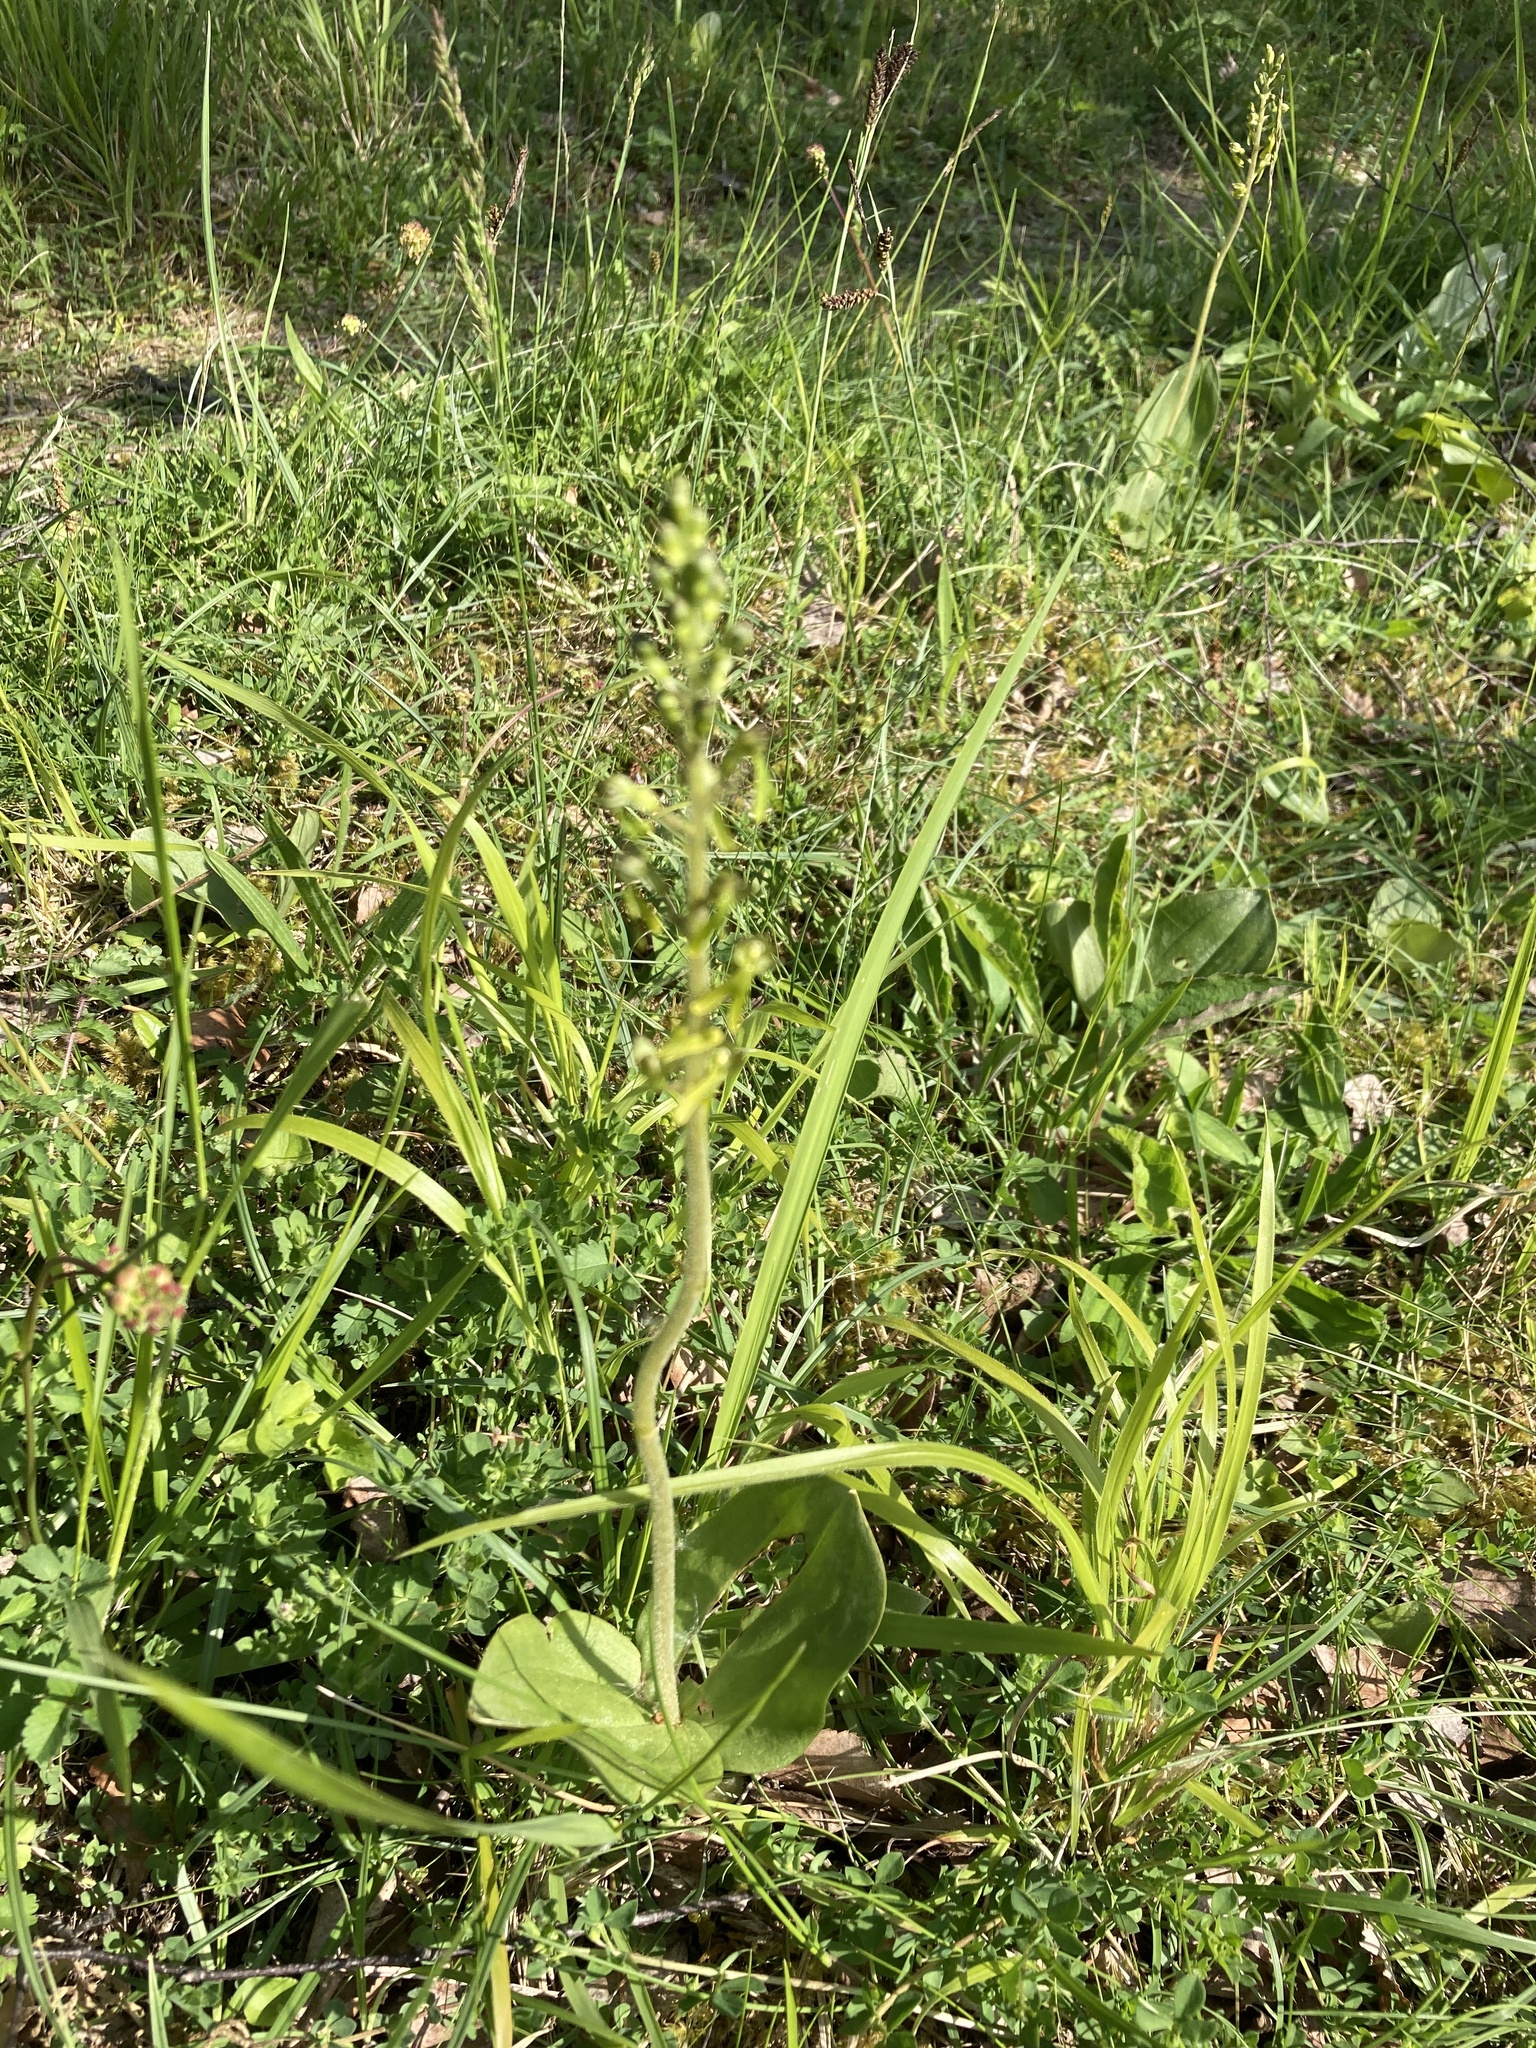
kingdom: Plantae
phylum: Tracheophyta
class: Liliopsida
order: Asparagales
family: Orchidaceae
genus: Neottia
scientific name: Neottia ovata
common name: Common twayblade
